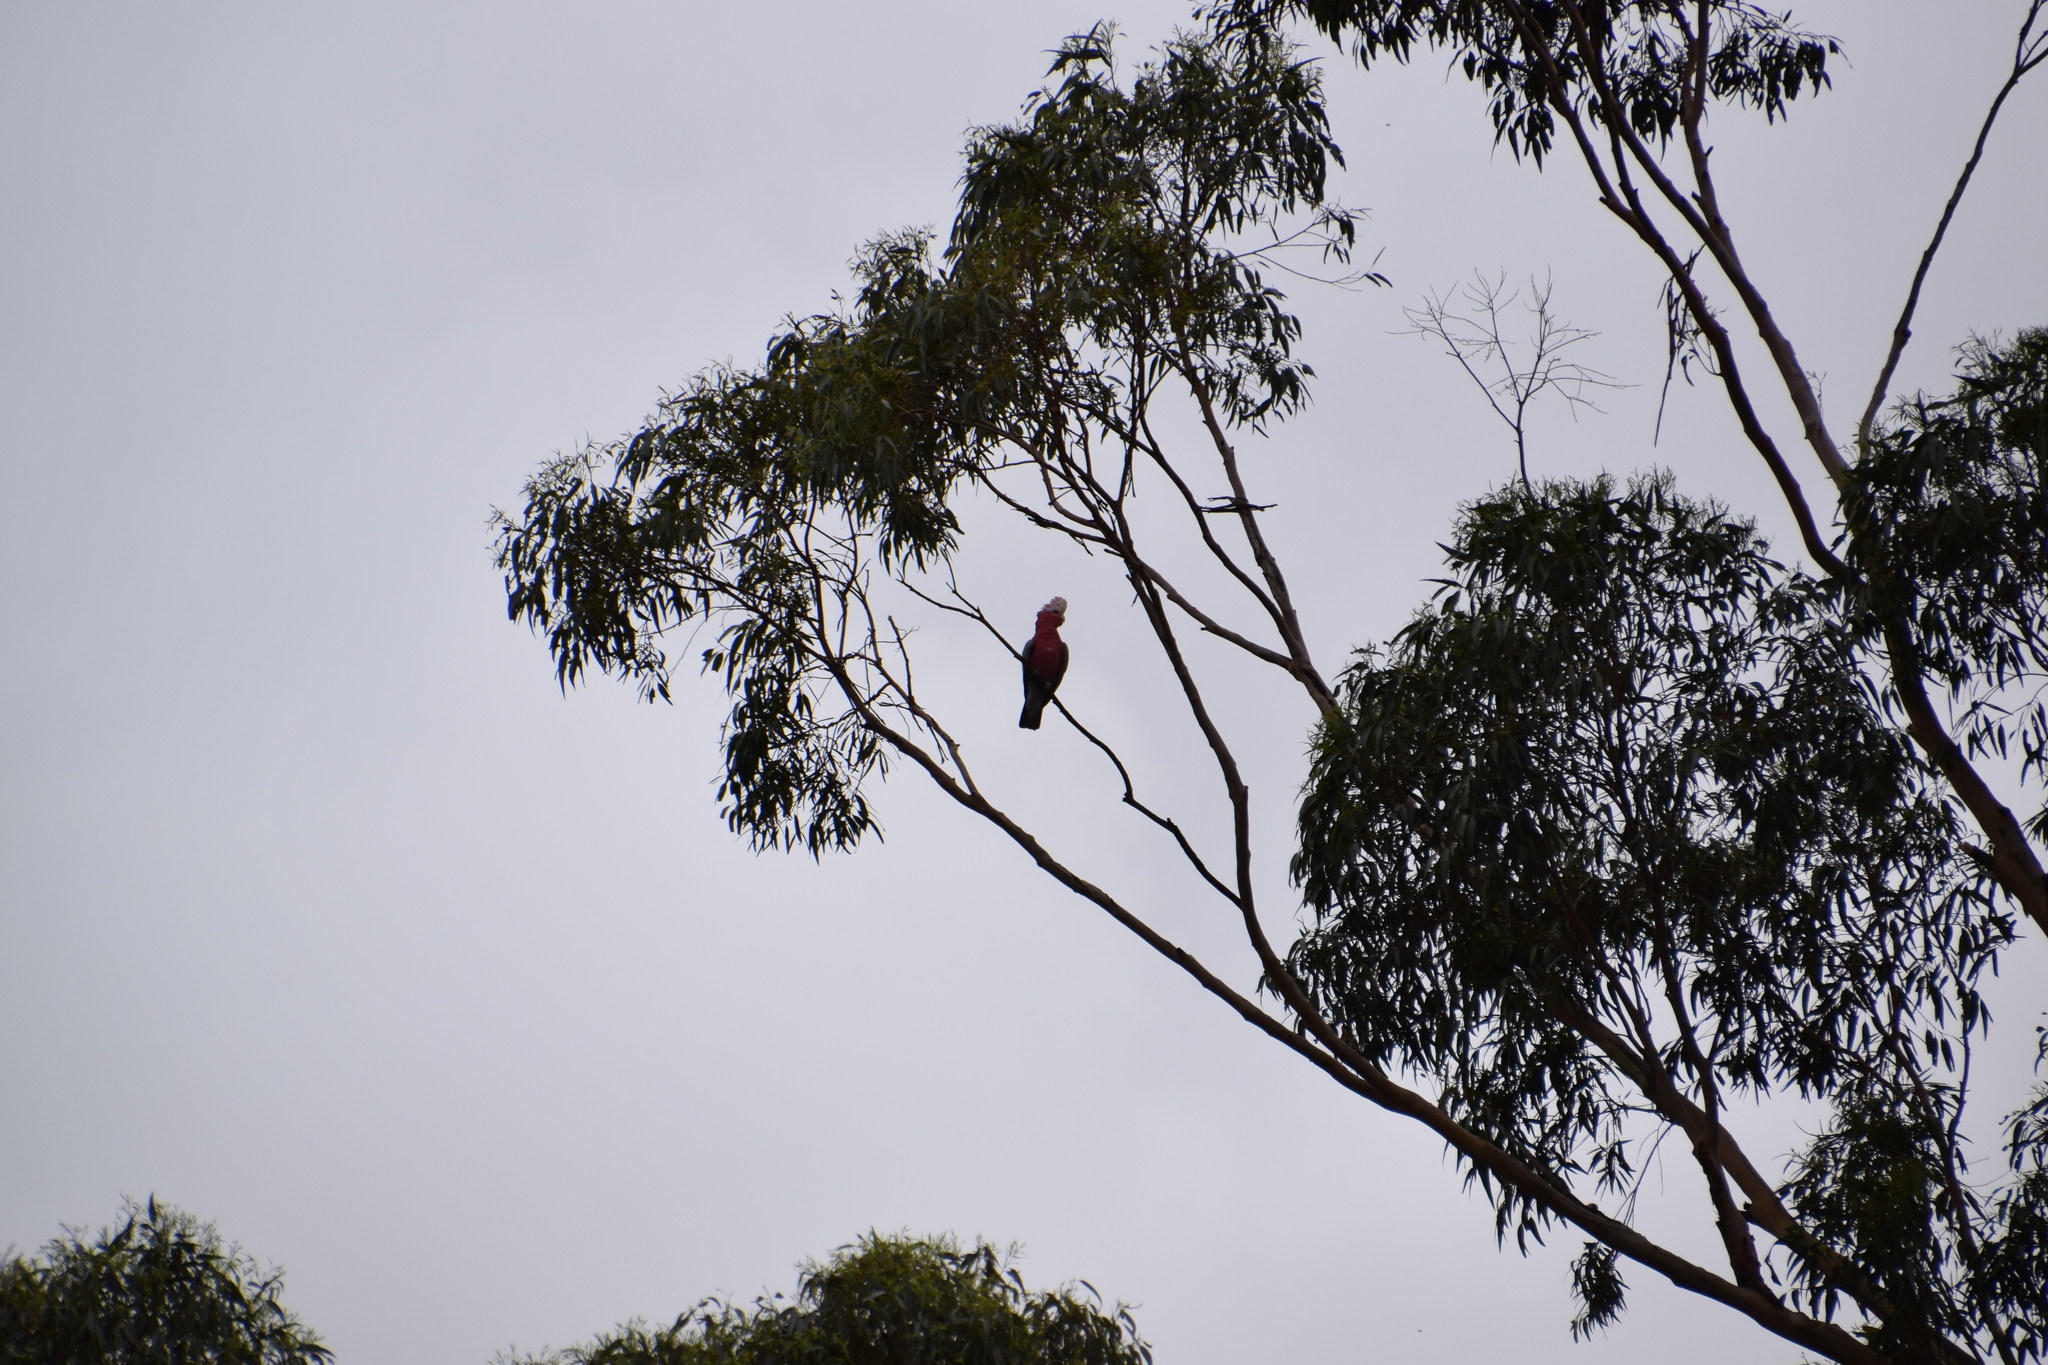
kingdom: Animalia
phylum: Chordata
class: Aves
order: Psittaciformes
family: Psittacidae
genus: Eolophus
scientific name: Eolophus roseicapilla
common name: Galah
